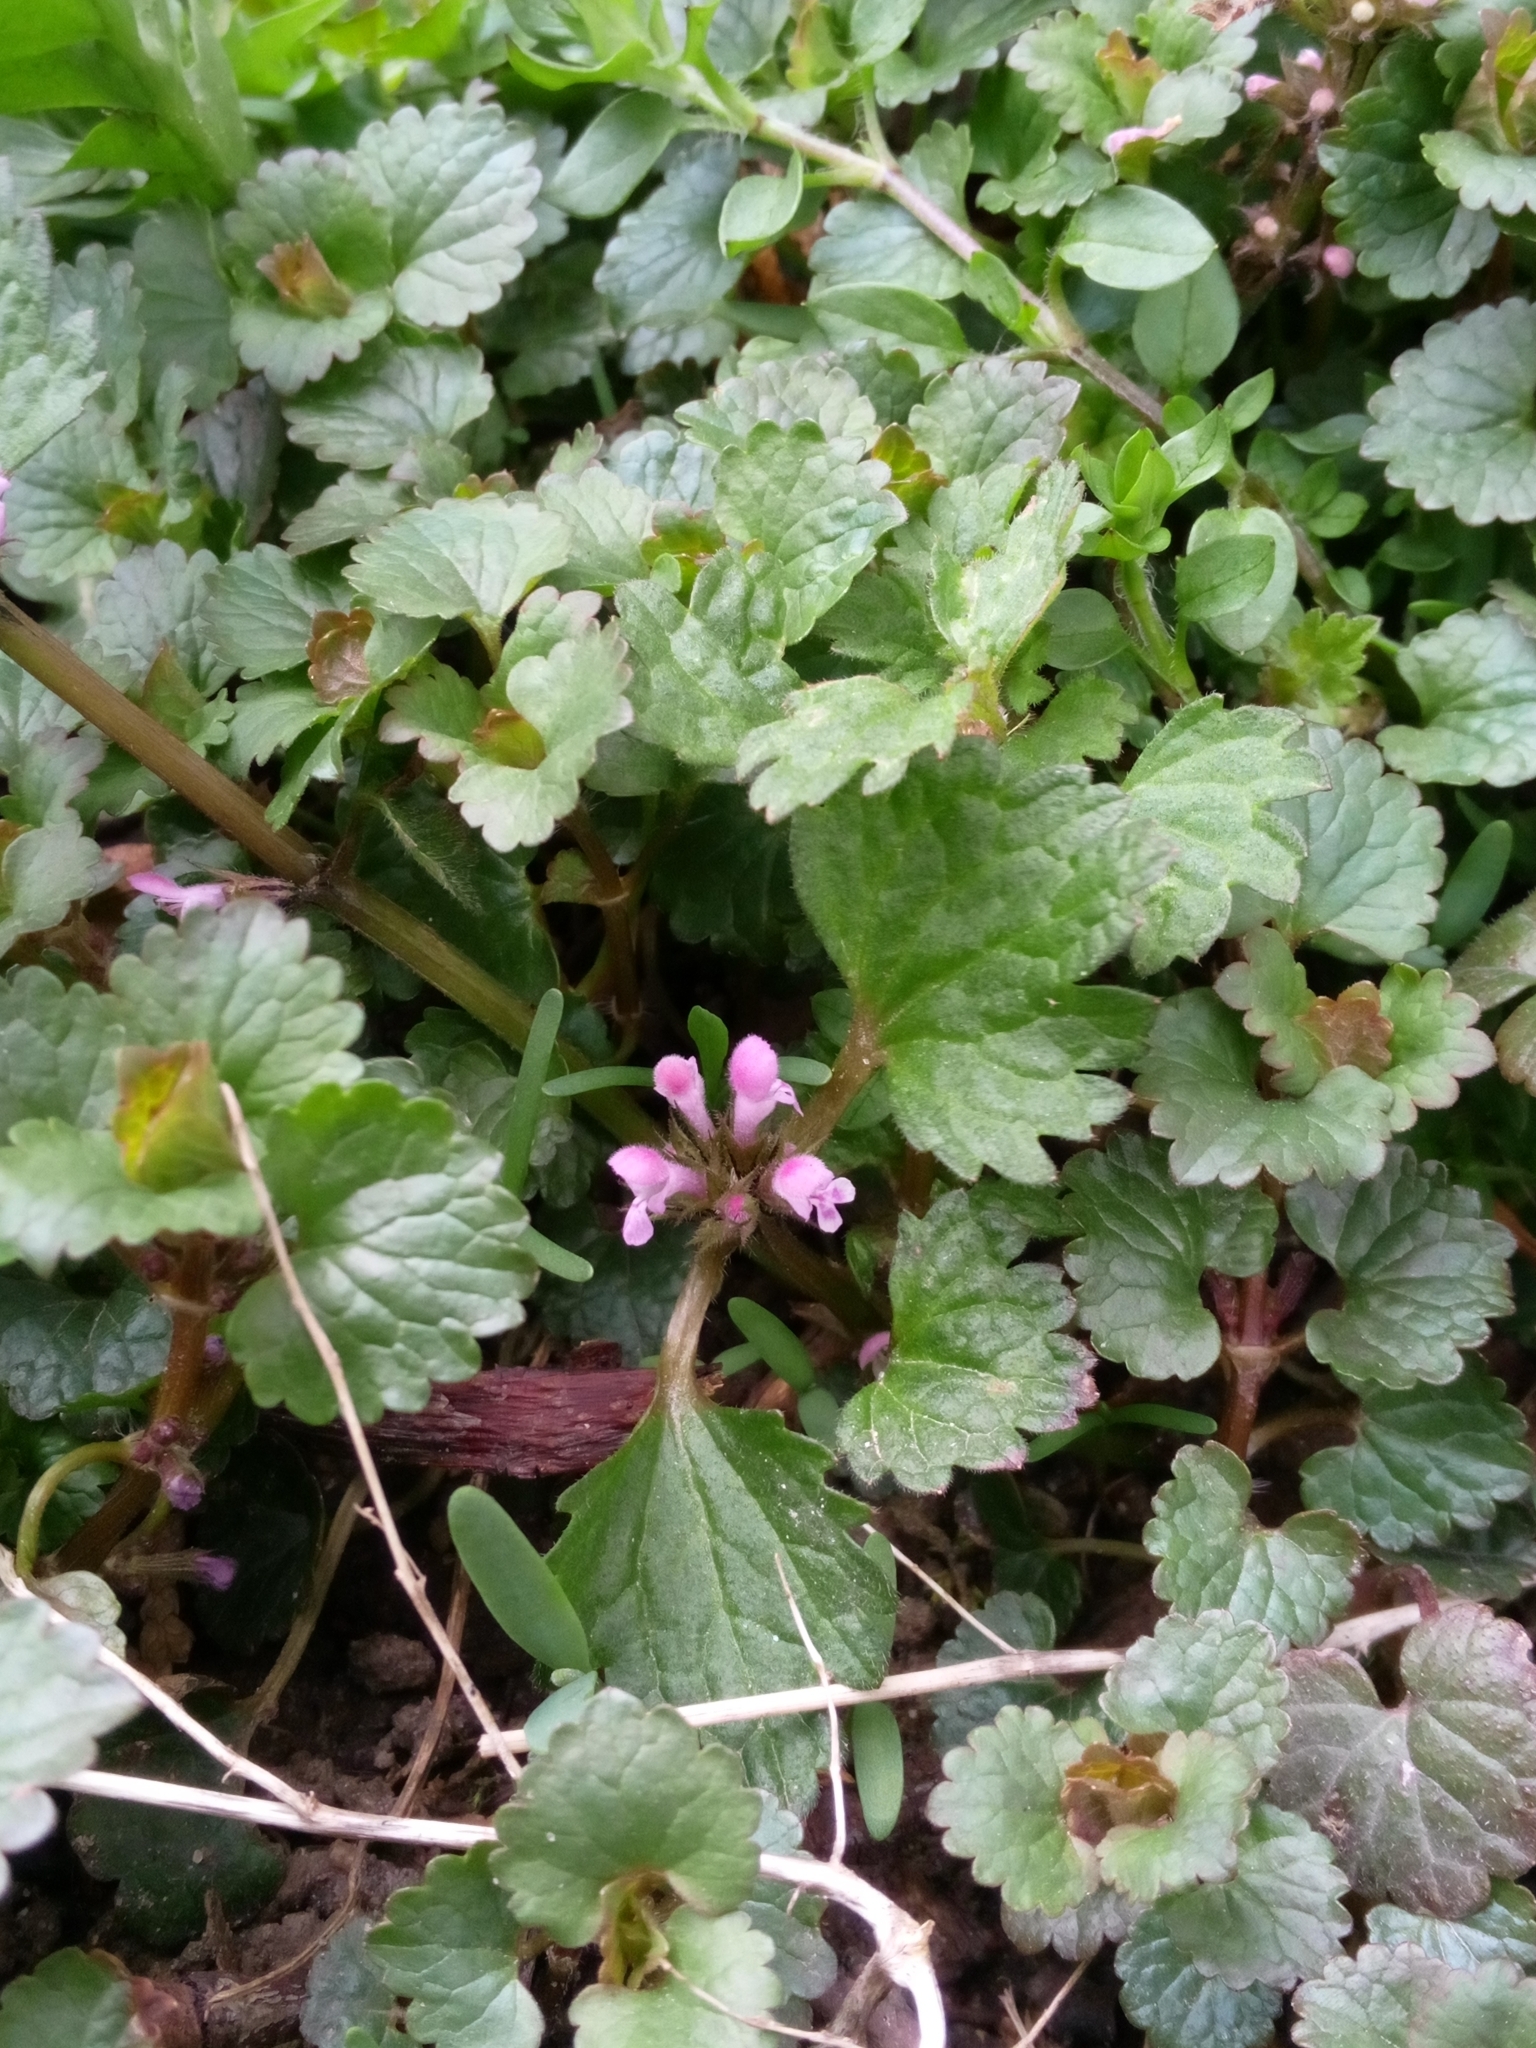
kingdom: Plantae
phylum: Tracheophyta
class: Magnoliopsida
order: Lamiales
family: Lamiaceae
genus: Glechoma
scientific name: Glechoma hederacea
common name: Ground ivy
